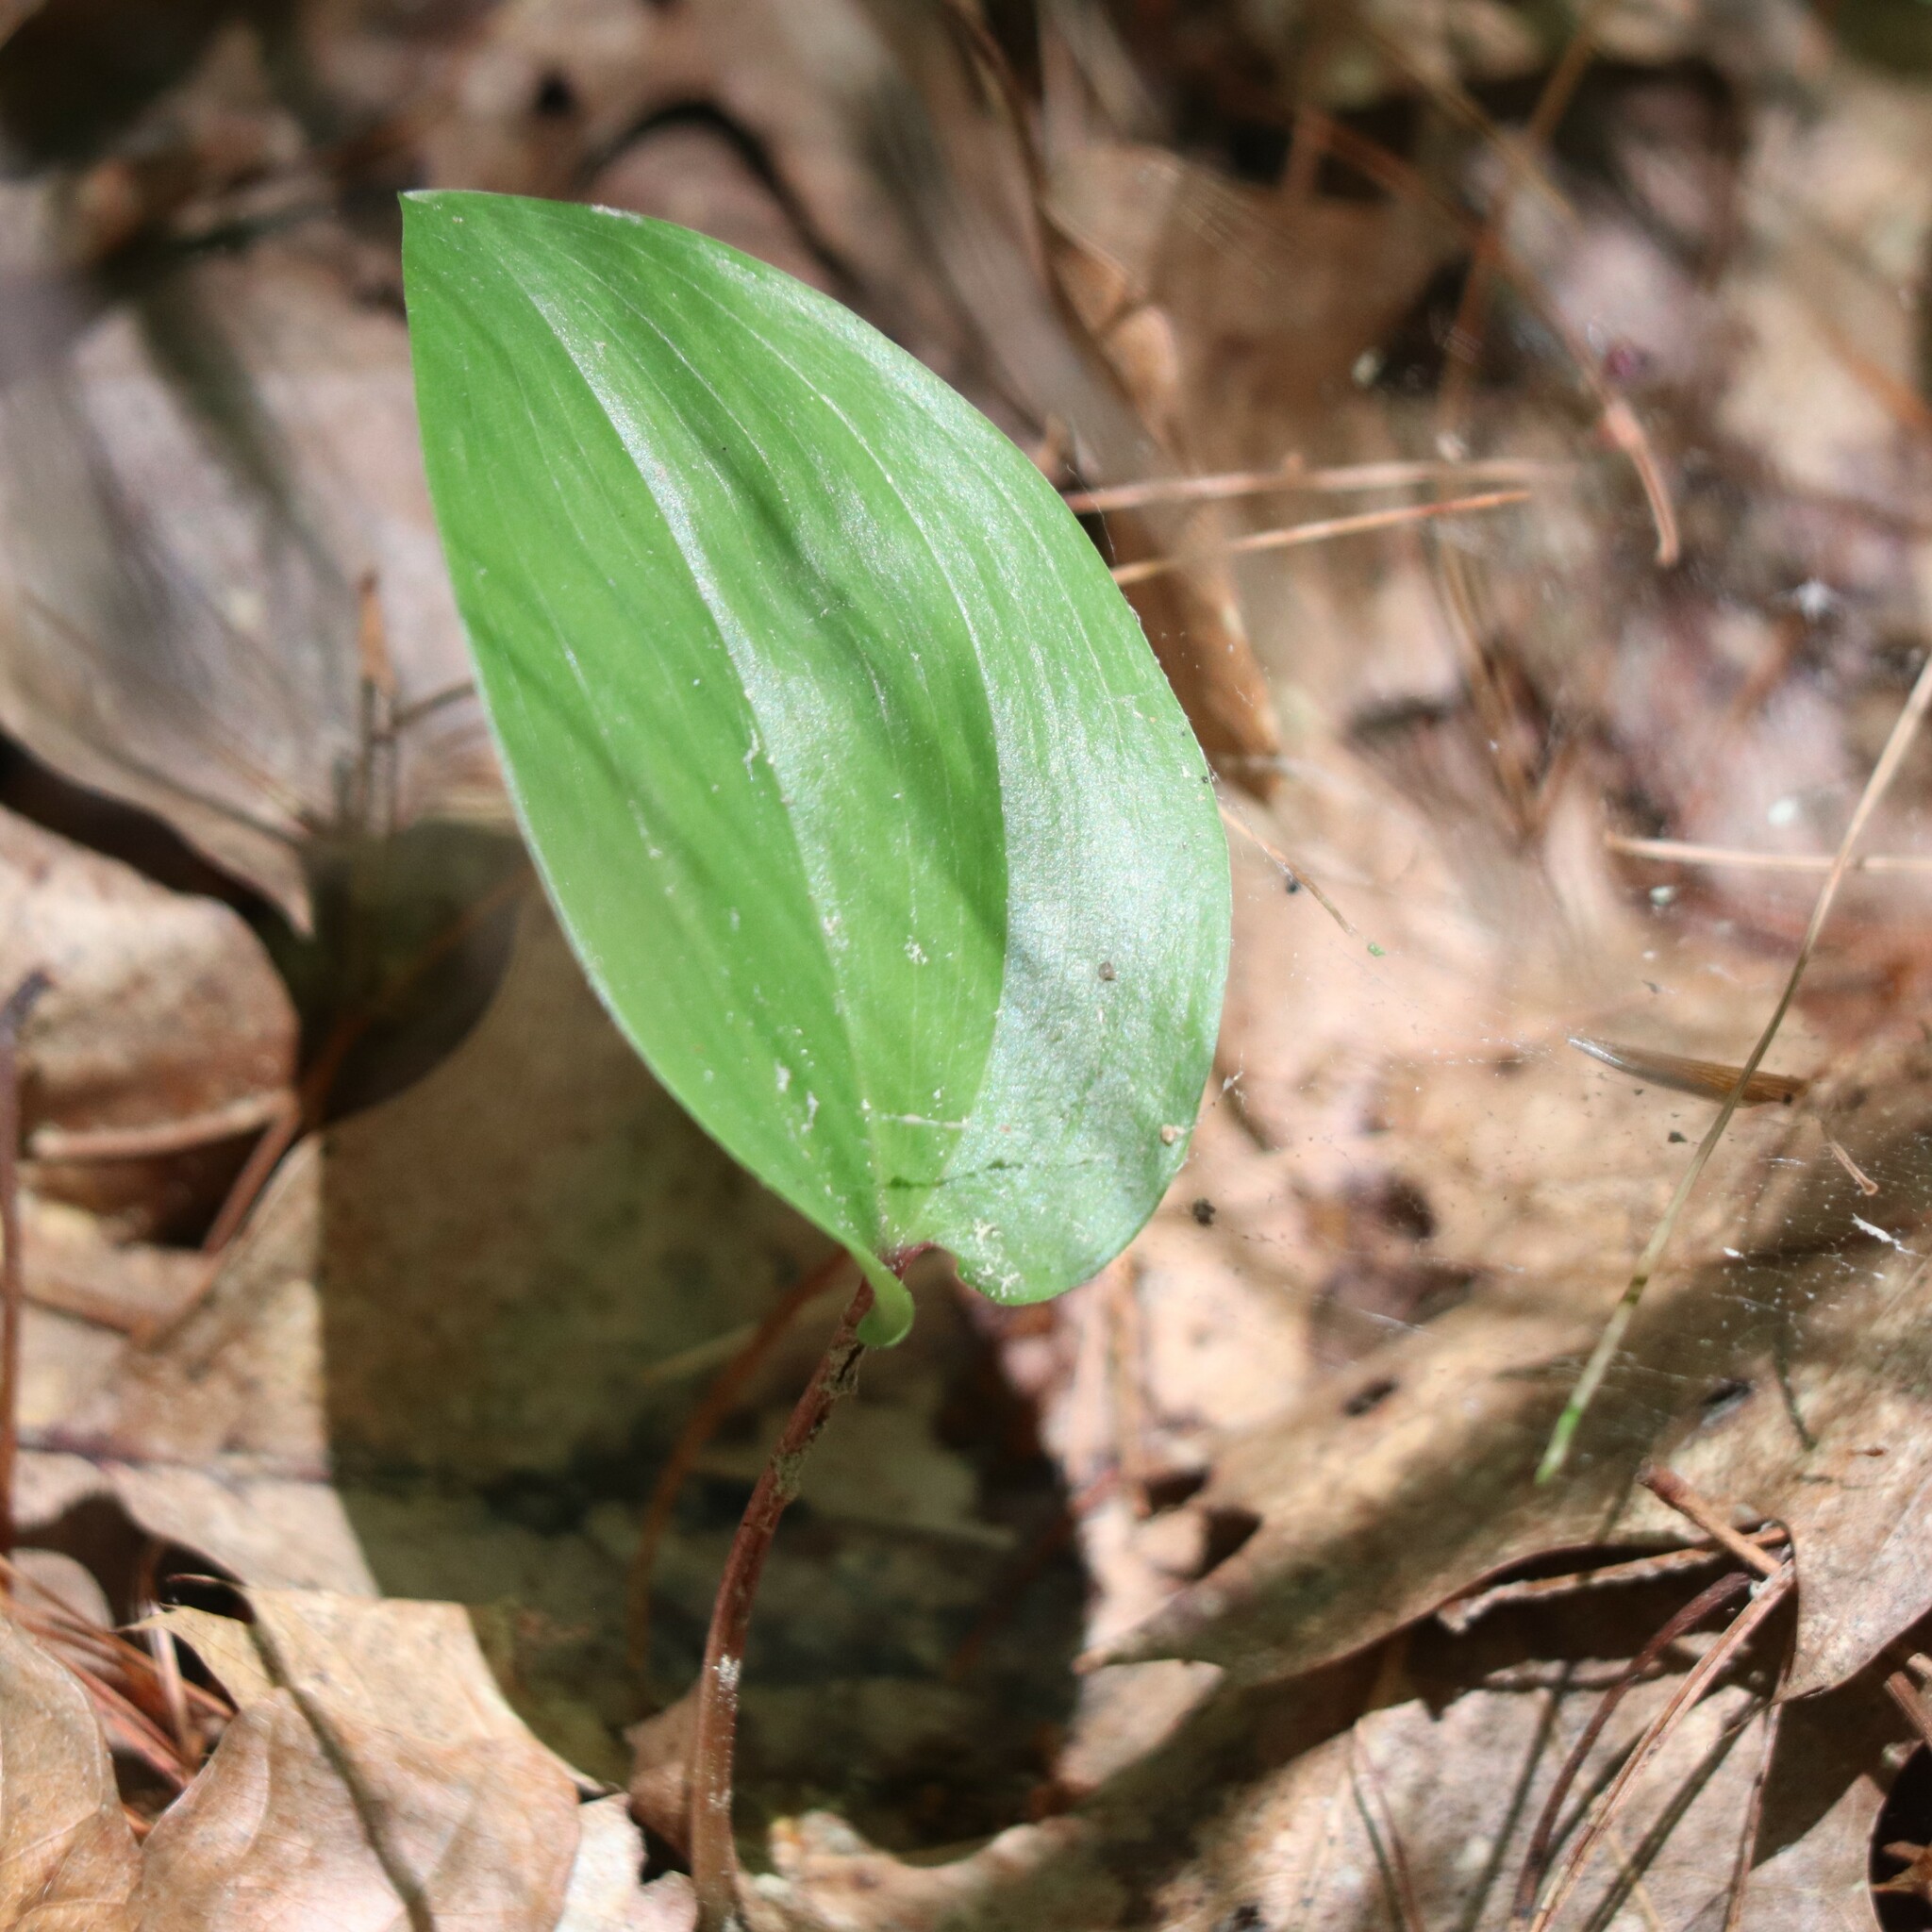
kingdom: Plantae
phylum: Tracheophyta
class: Liliopsida
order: Asparagales
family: Asparagaceae
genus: Maianthemum
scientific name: Maianthemum canadense
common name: False lily-of-the-valley
